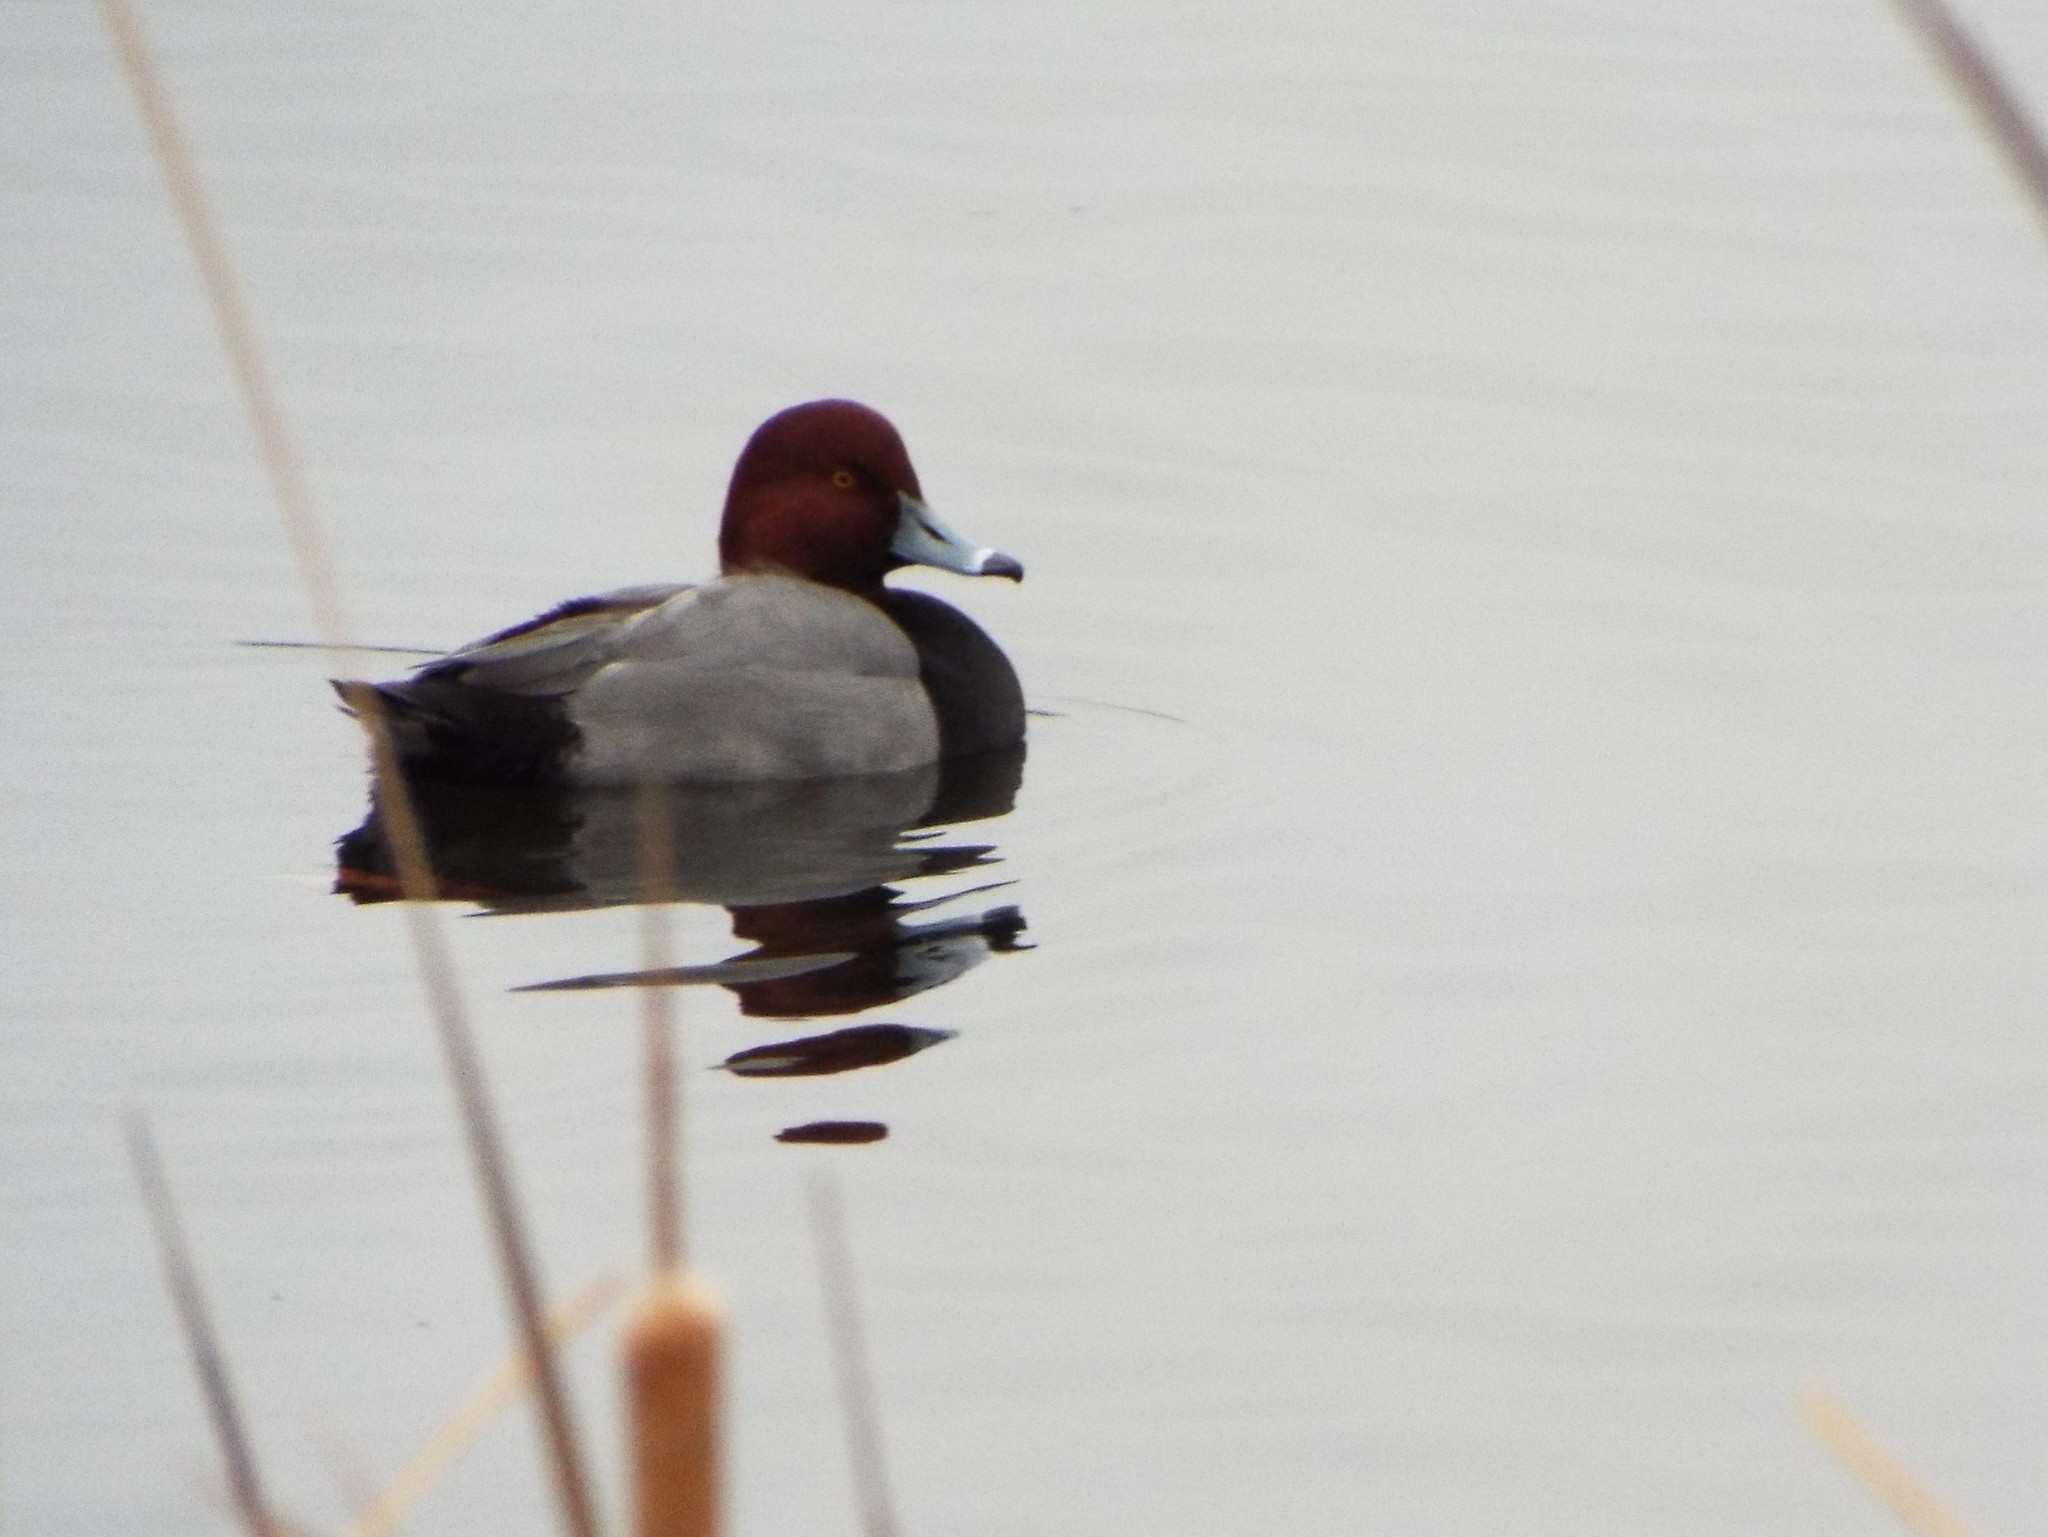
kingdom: Animalia
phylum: Chordata
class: Aves
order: Anseriformes
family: Anatidae
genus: Aythya
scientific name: Aythya americana
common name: Redhead
